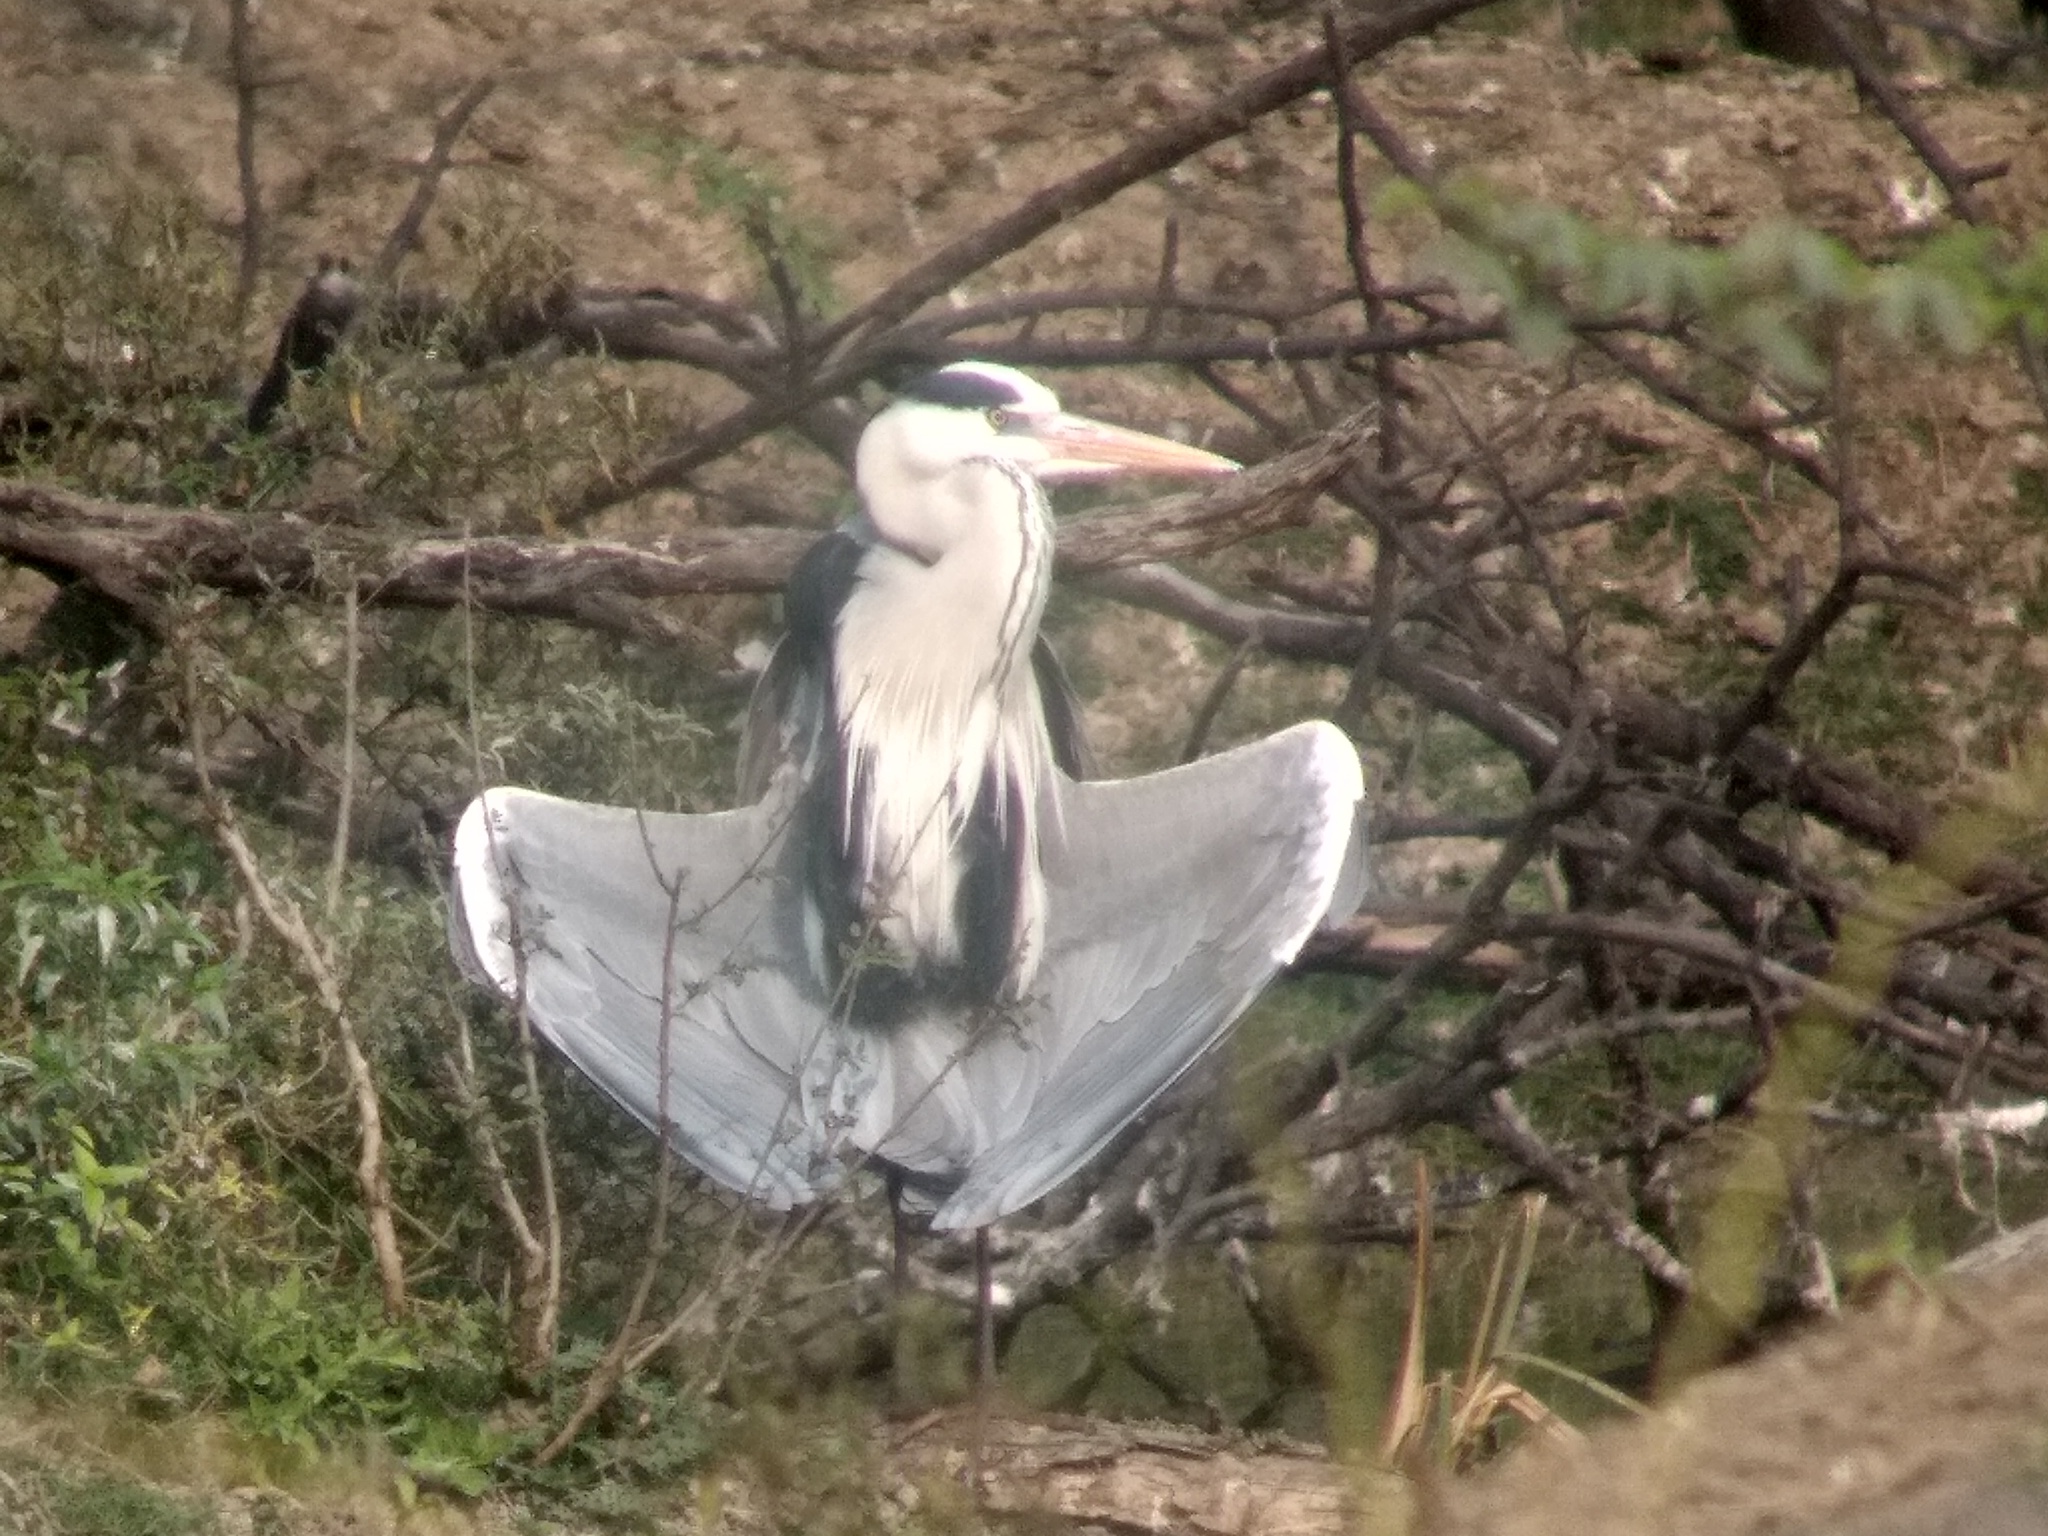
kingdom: Animalia
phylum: Chordata
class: Aves
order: Pelecaniformes
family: Ardeidae
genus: Ardea
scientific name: Ardea cinerea
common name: Grey heron
